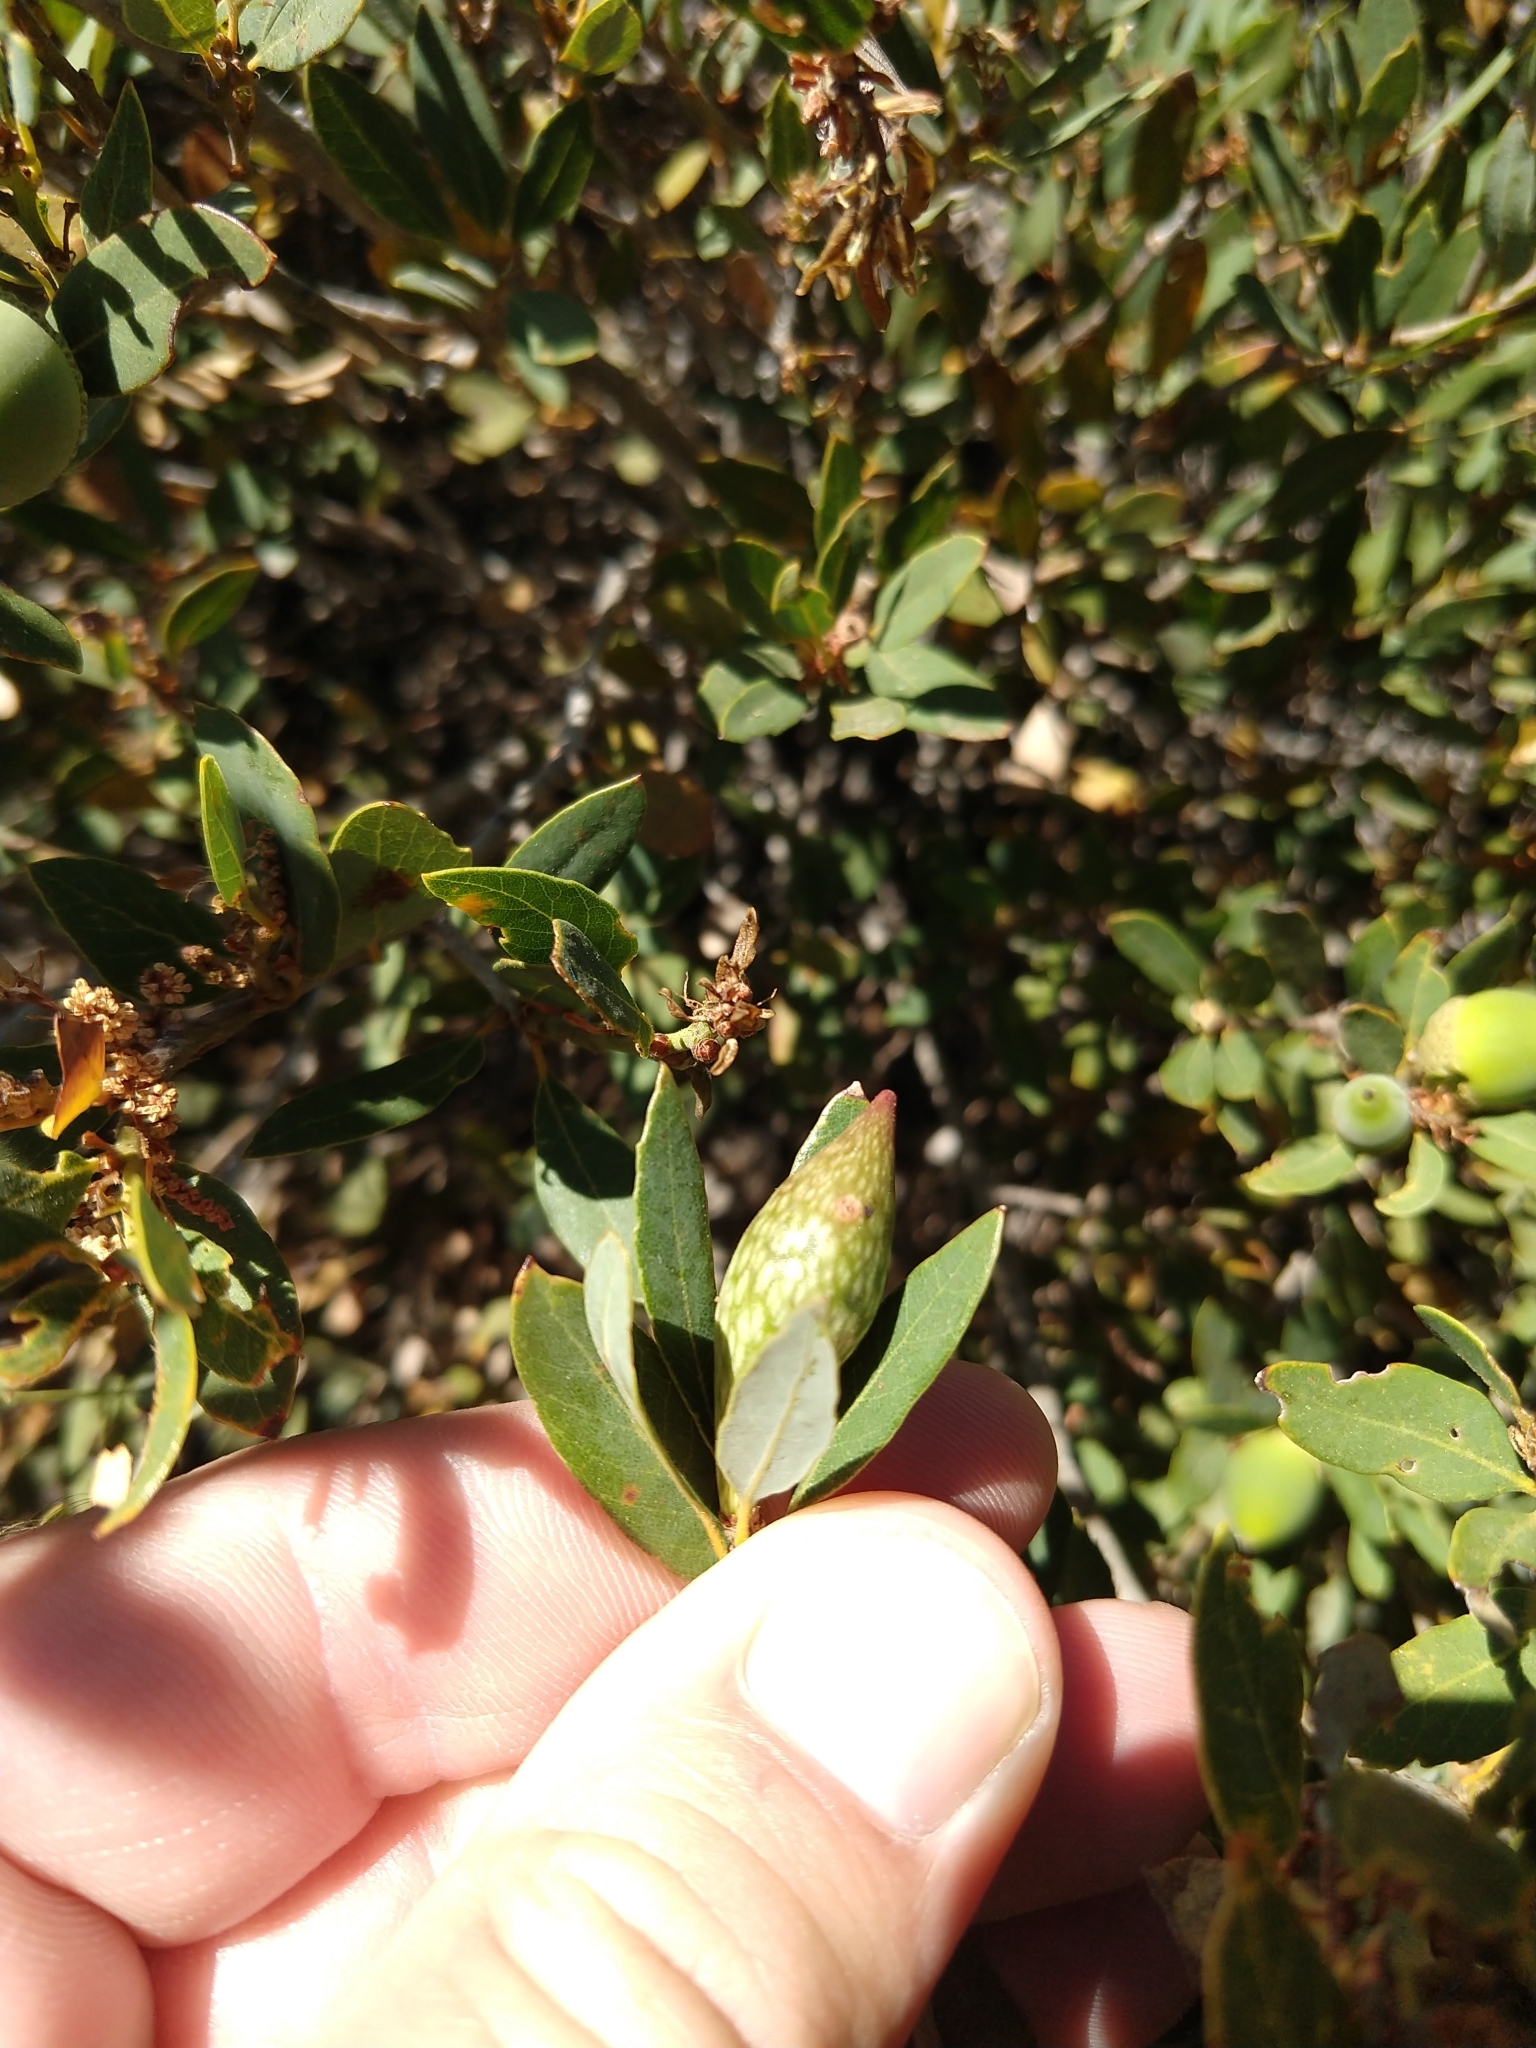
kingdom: Animalia
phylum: Arthropoda
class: Insecta
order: Hymenoptera
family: Cynipidae
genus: Heteroecus
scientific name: Heteroecus pacificus
